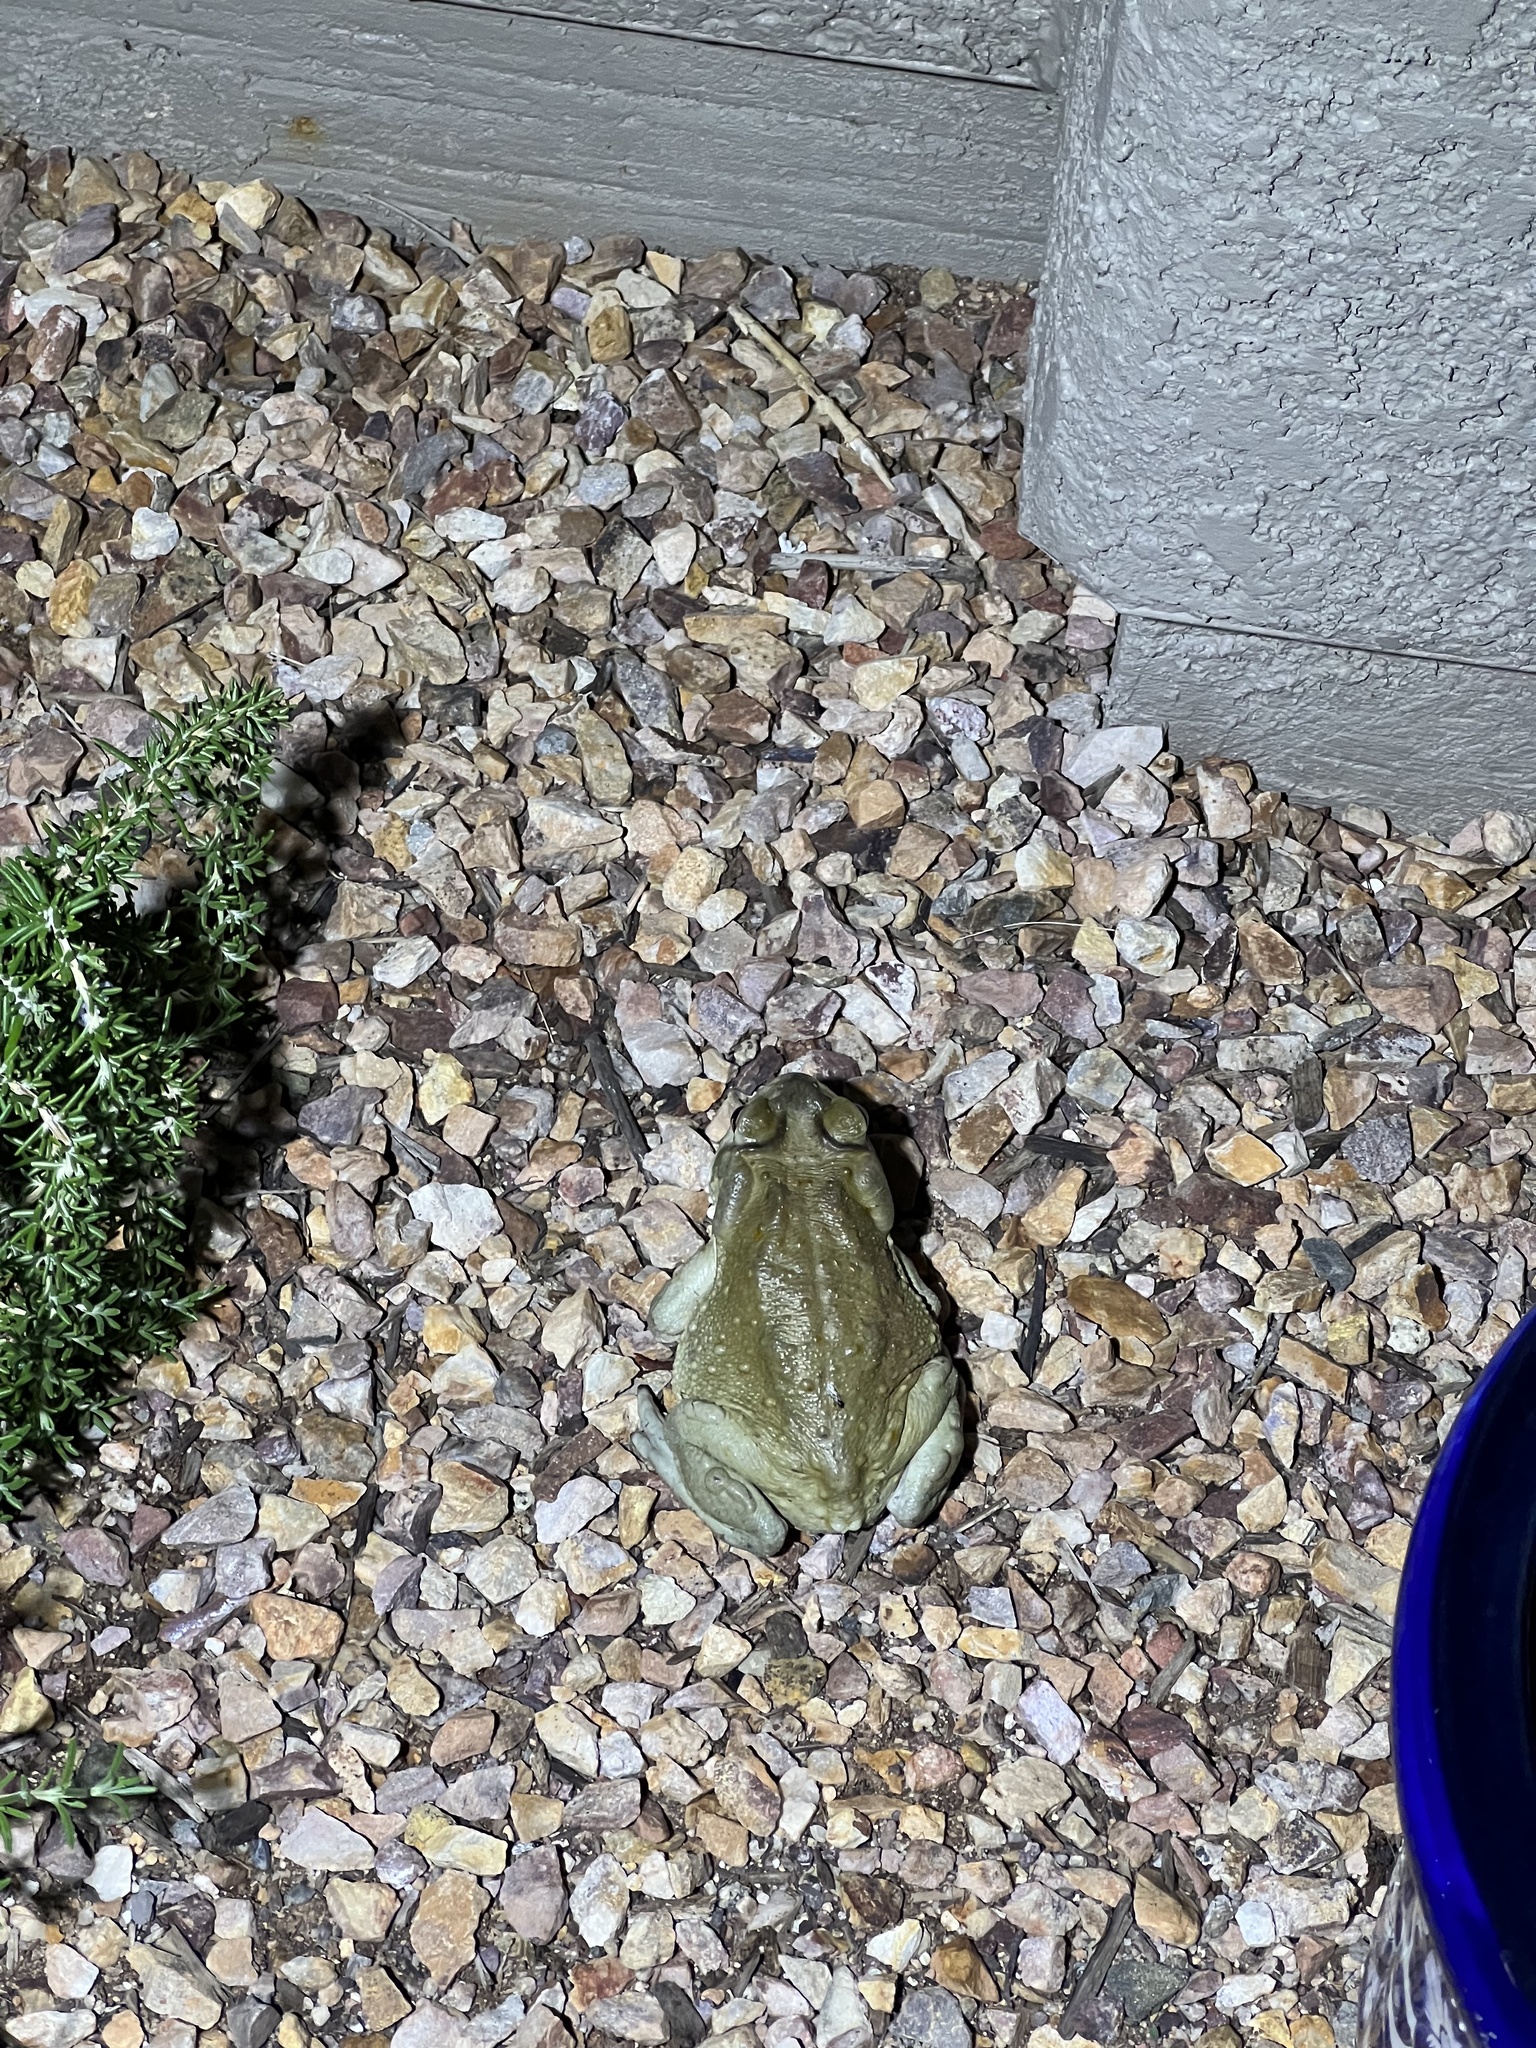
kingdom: Animalia
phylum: Chordata
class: Amphibia
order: Anura
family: Bufonidae
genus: Incilius
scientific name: Incilius alvarius
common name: Sonoran desert toad
